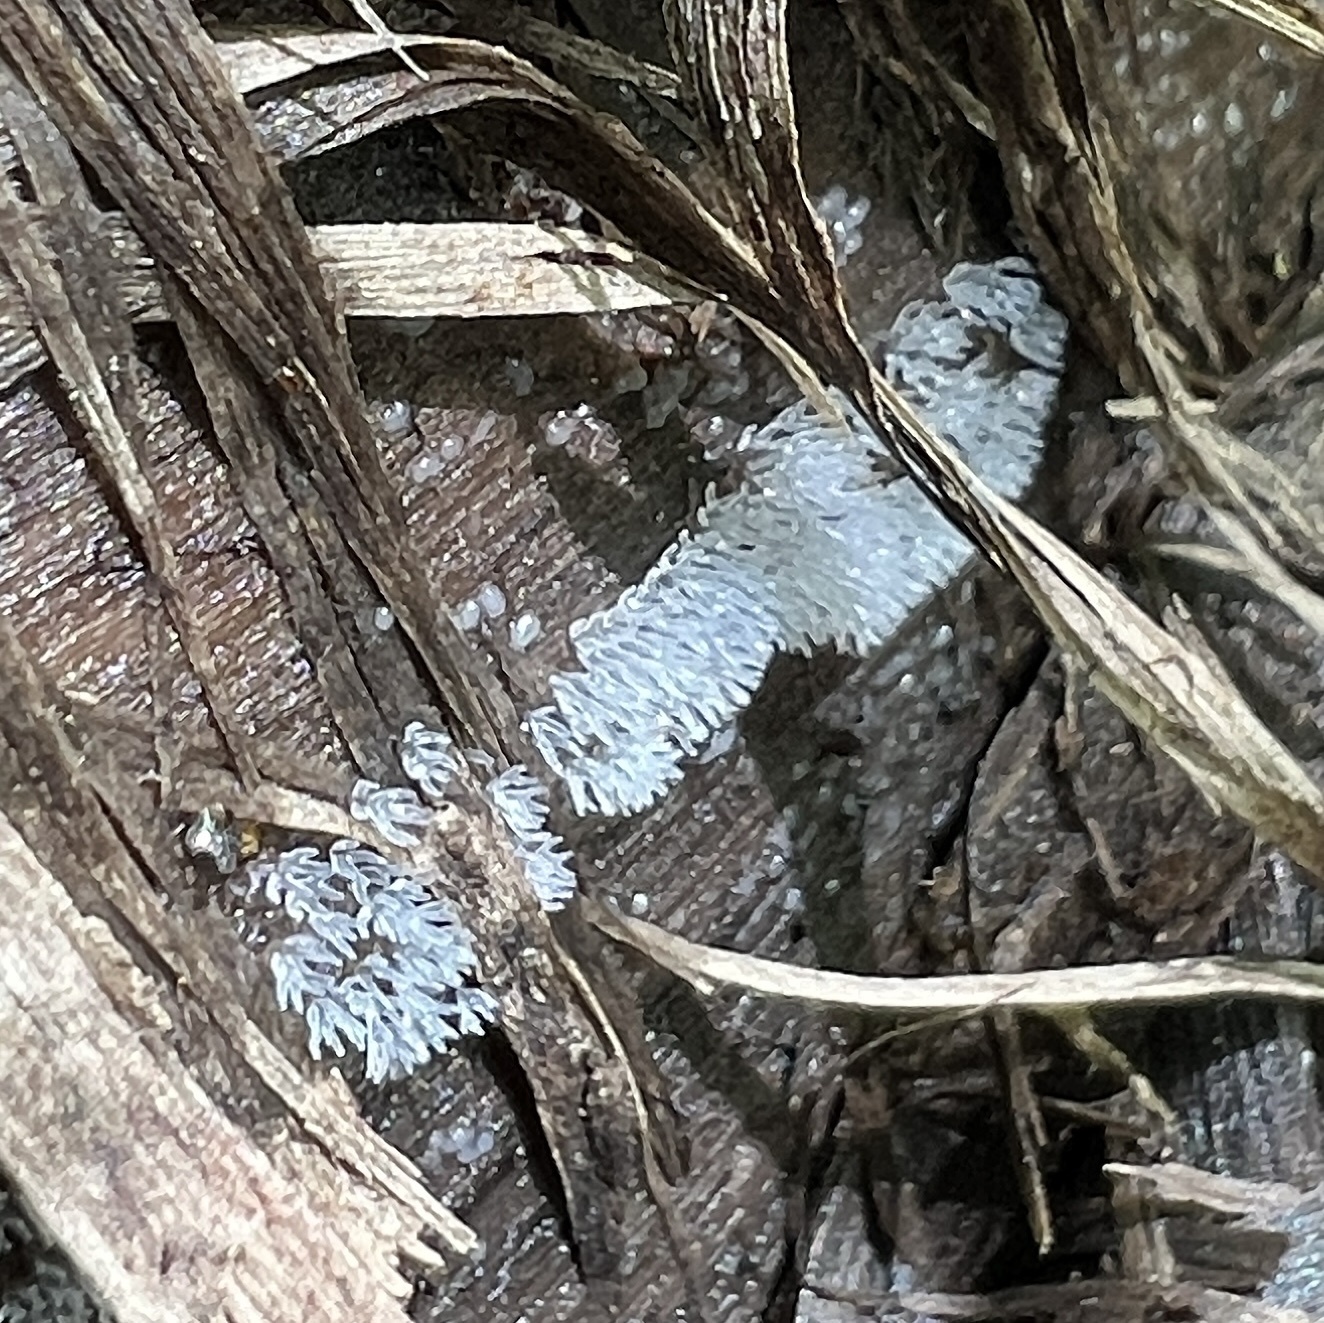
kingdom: Protozoa
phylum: Mycetozoa
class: Protosteliomycetes
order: Ceratiomyxales
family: Ceratiomyxaceae
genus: Ceratiomyxa
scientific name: Ceratiomyxa fruticulosa
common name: Honeycomb coral slime mold
